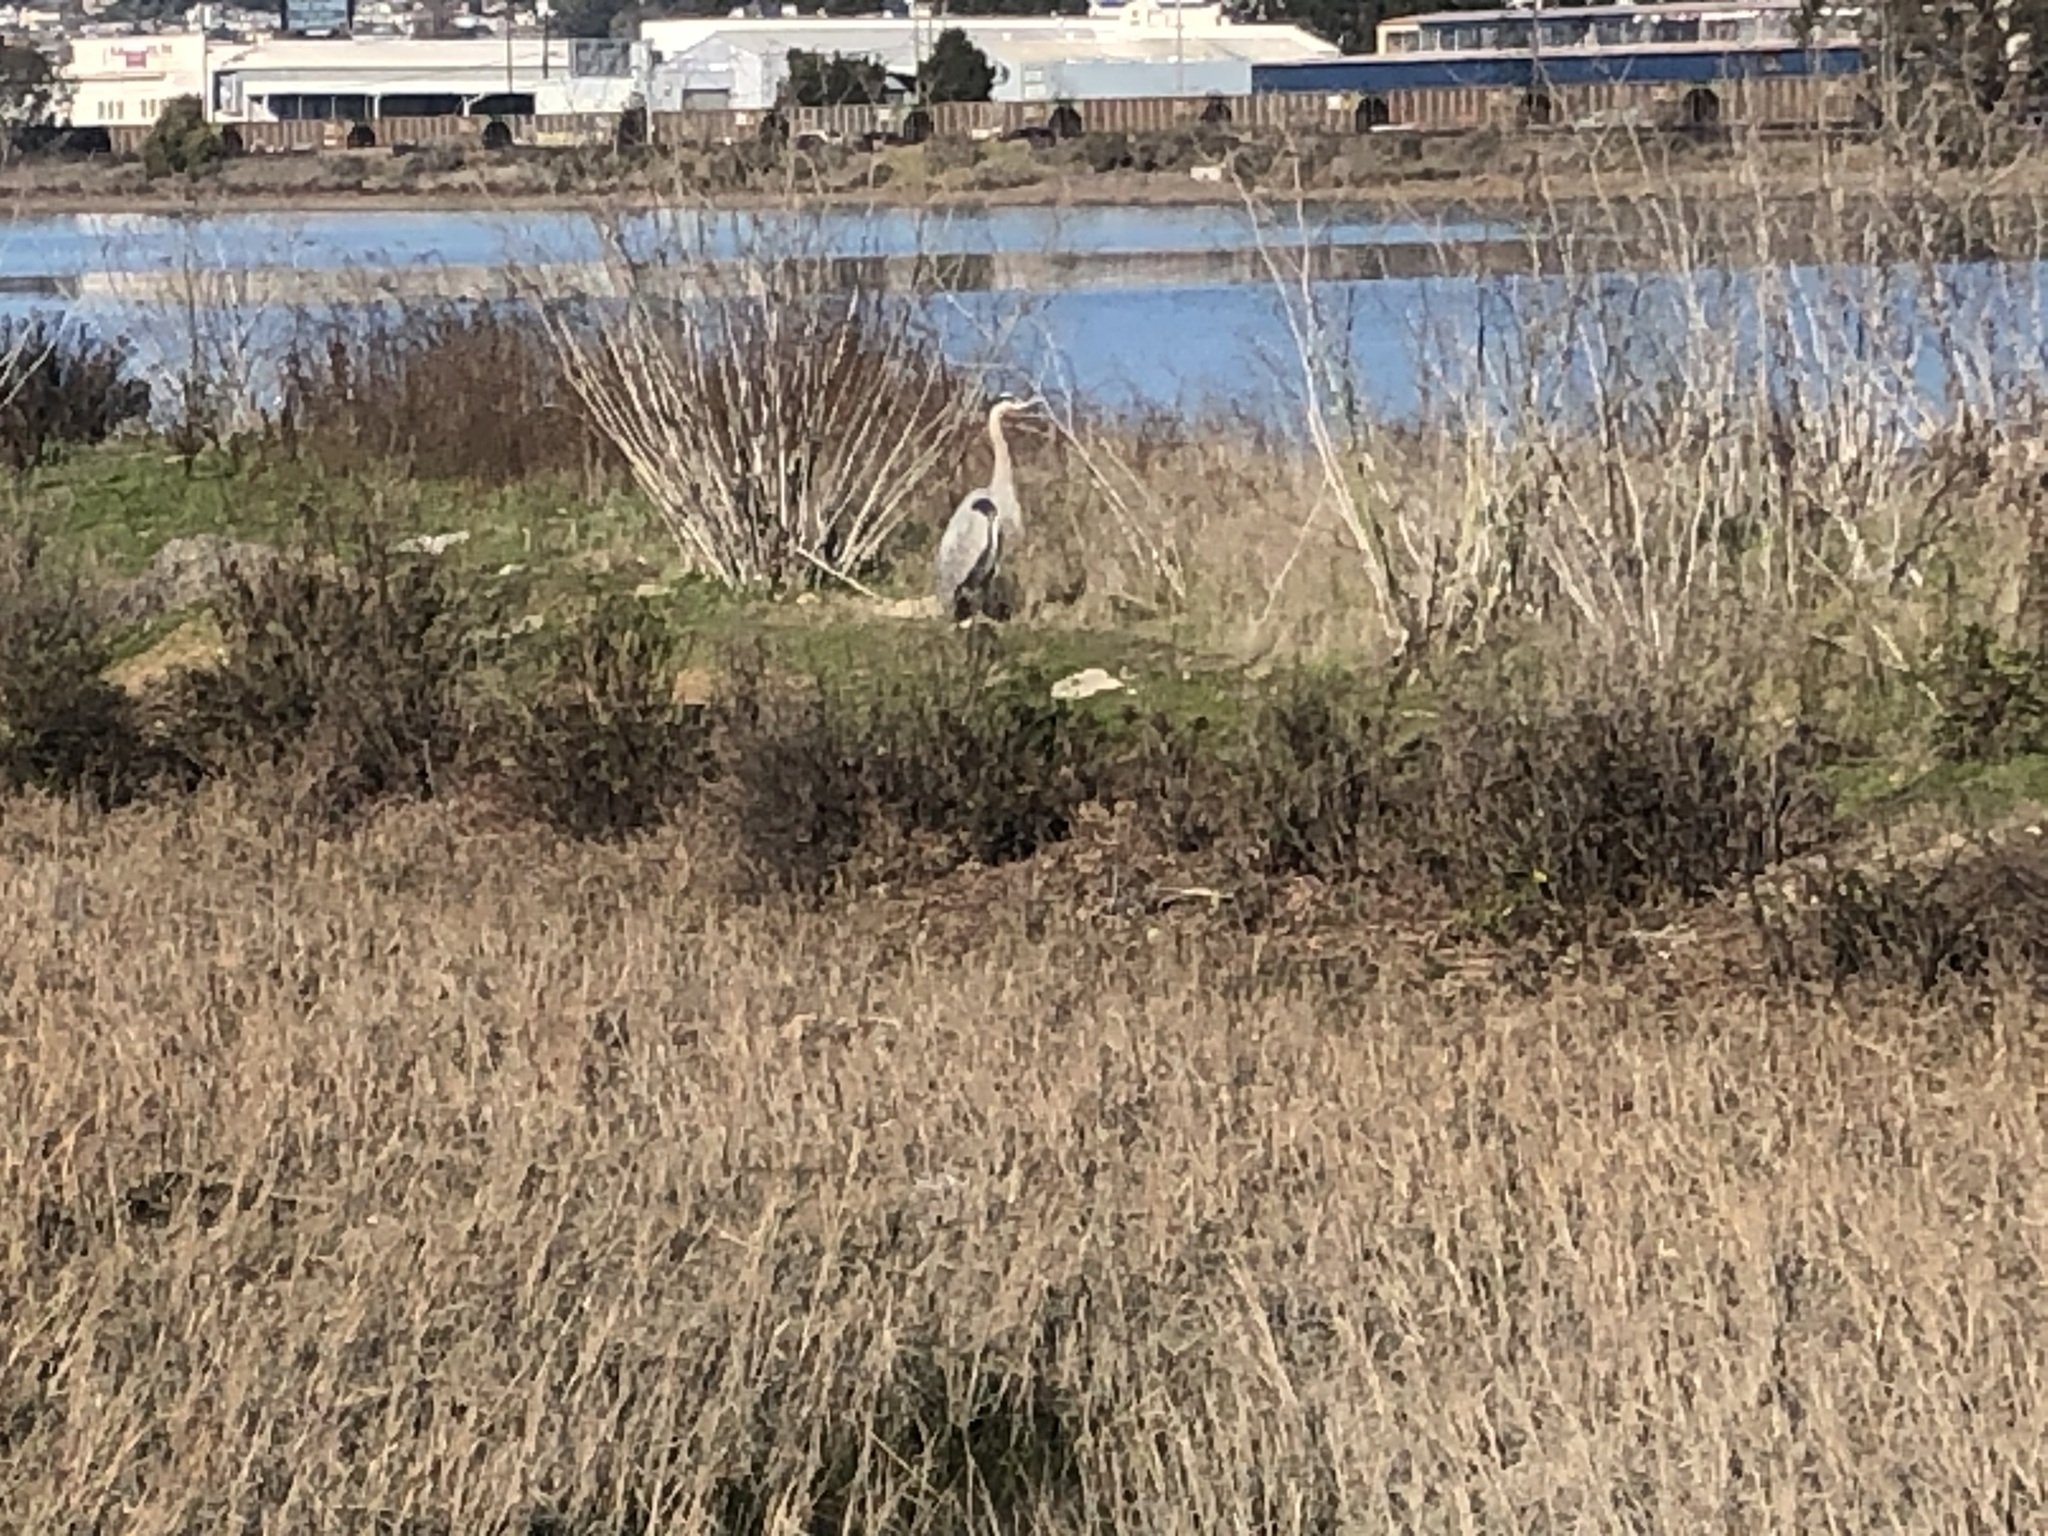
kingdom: Animalia
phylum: Chordata
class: Aves
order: Pelecaniformes
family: Ardeidae
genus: Ardea
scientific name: Ardea herodias
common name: Great blue heron
